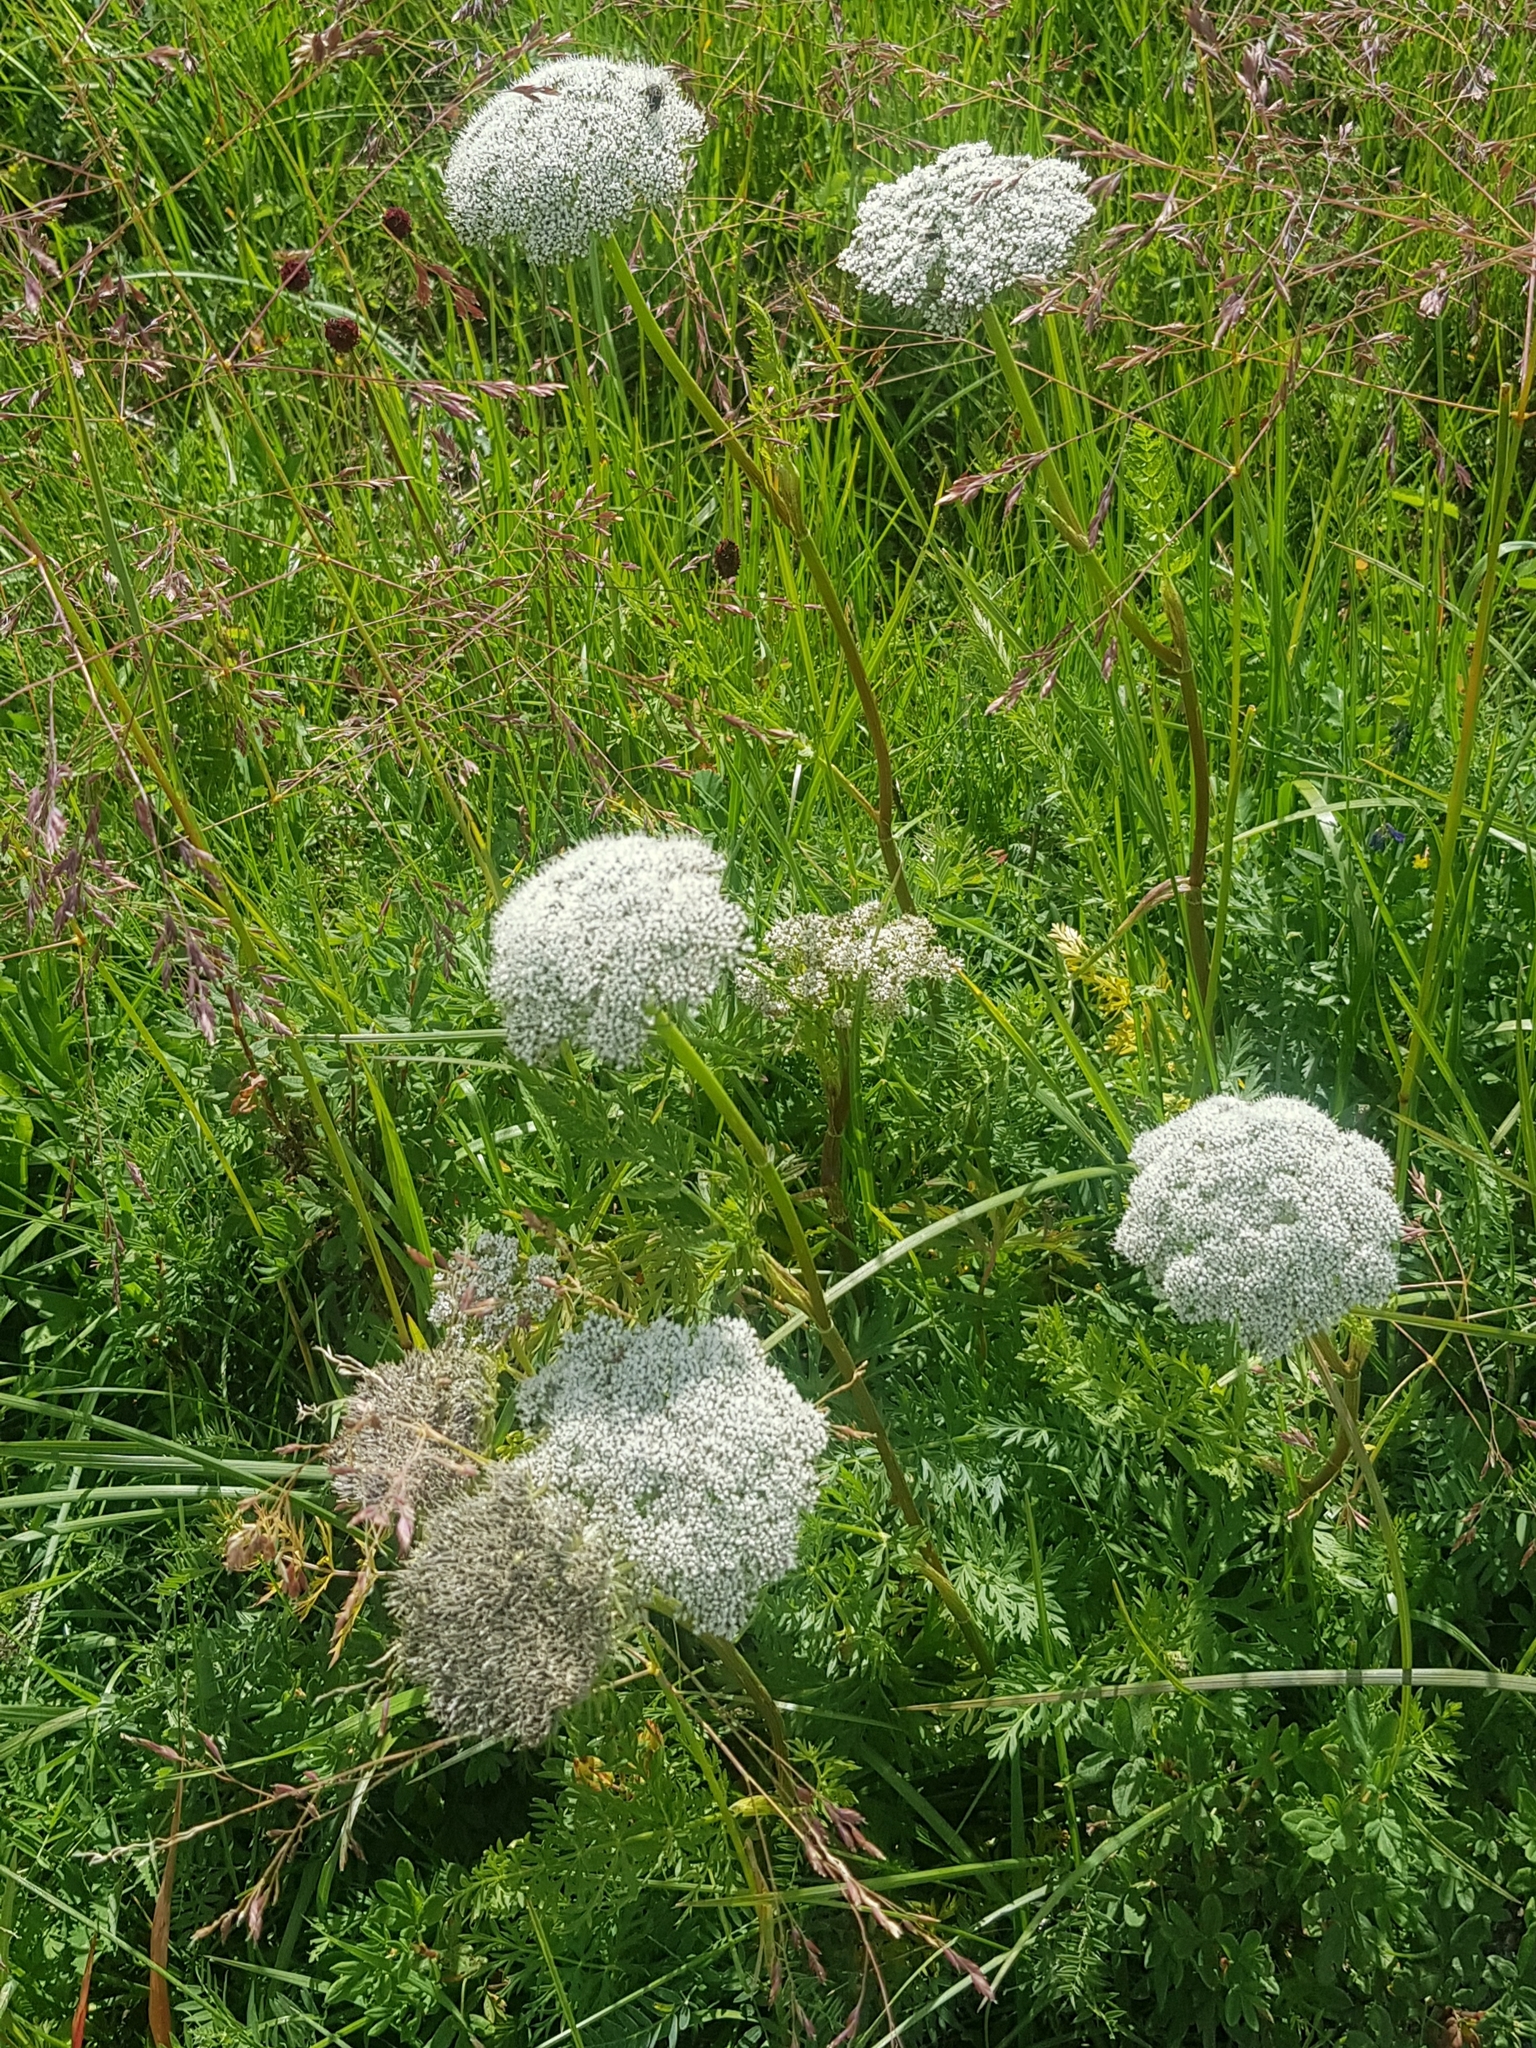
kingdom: Plantae
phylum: Tracheophyta
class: Magnoliopsida
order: Apiales
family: Apiaceae
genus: Seseli
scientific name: Seseli seseloides
